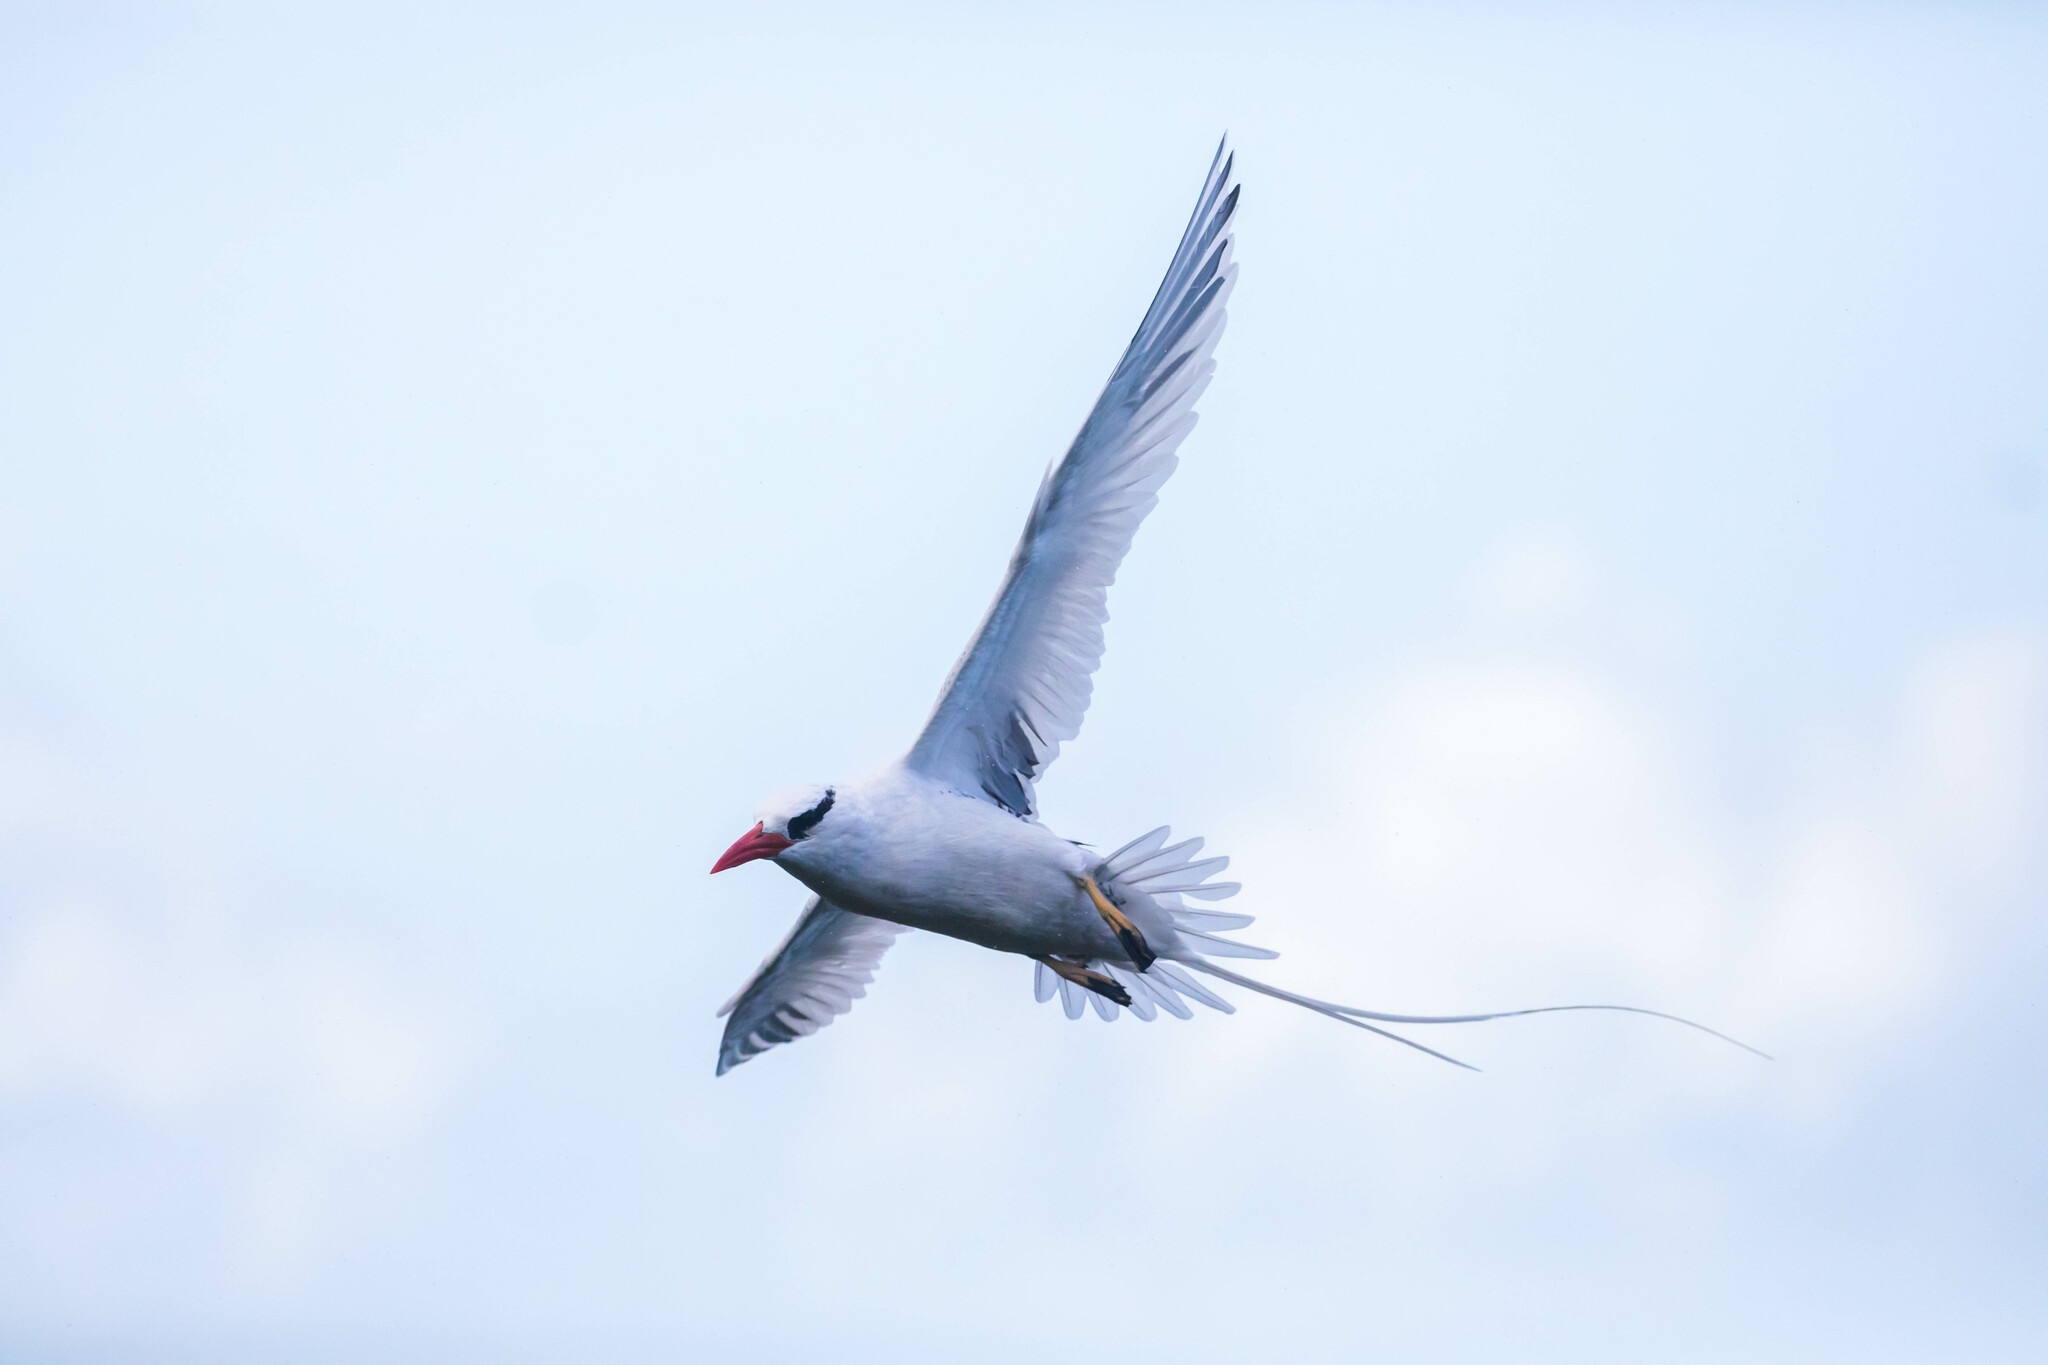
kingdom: Animalia
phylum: Chordata
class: Aves
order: Phaethontiformes
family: Phaethontidae
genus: Phaethon
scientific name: Phaethon aethereus
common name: Red-billed tropicbird
